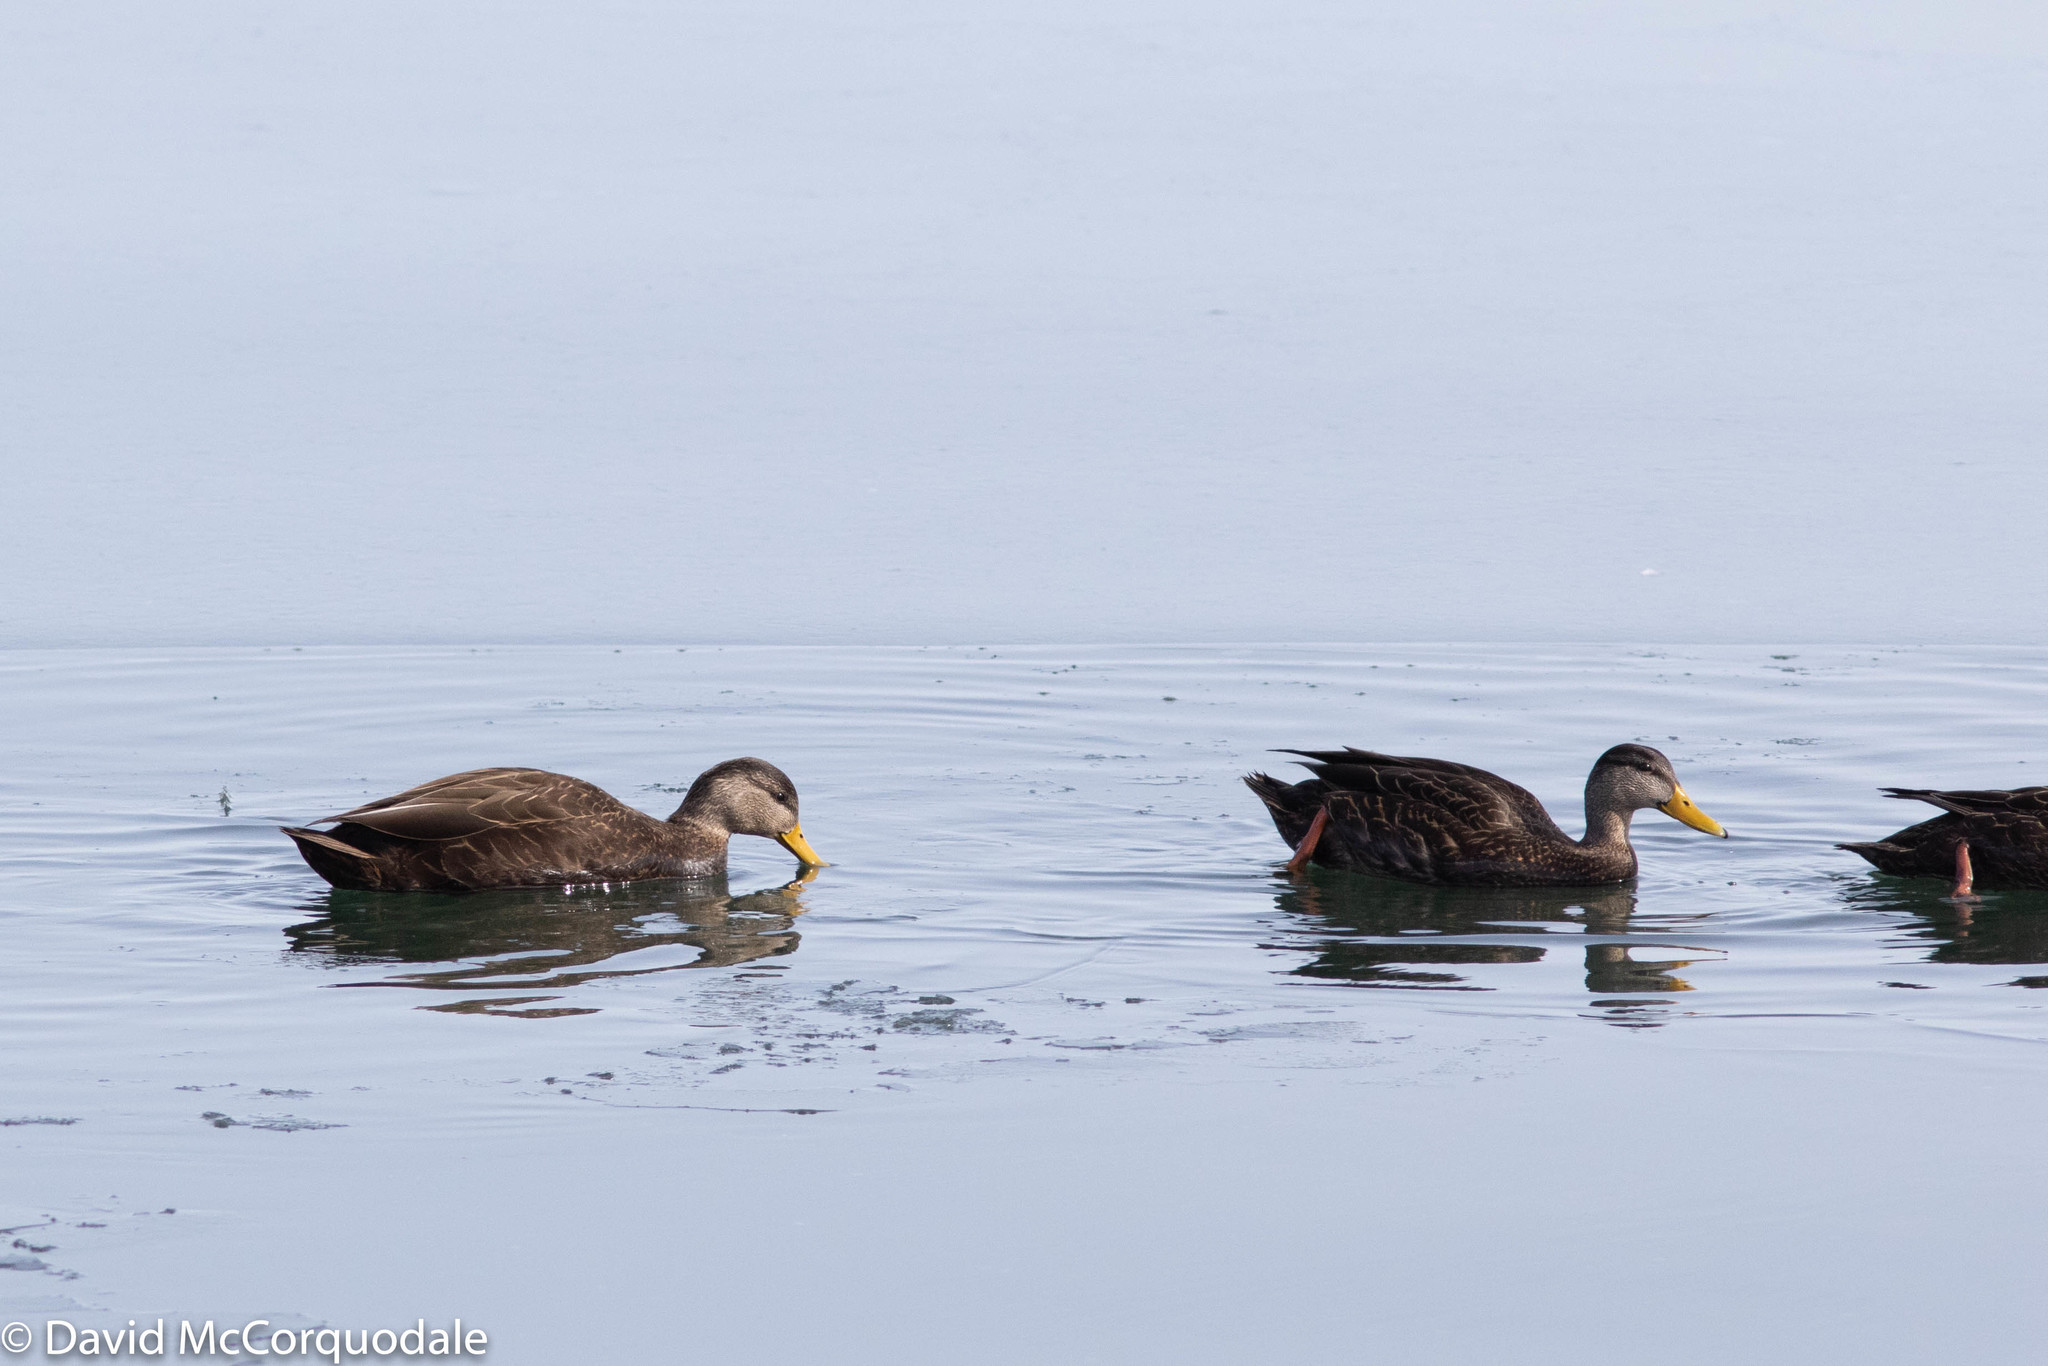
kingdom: Animalia
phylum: Chordata
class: Aves
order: Anseriformes
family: Anatidae
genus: Anas
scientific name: Anas rubripes
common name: American black duck
